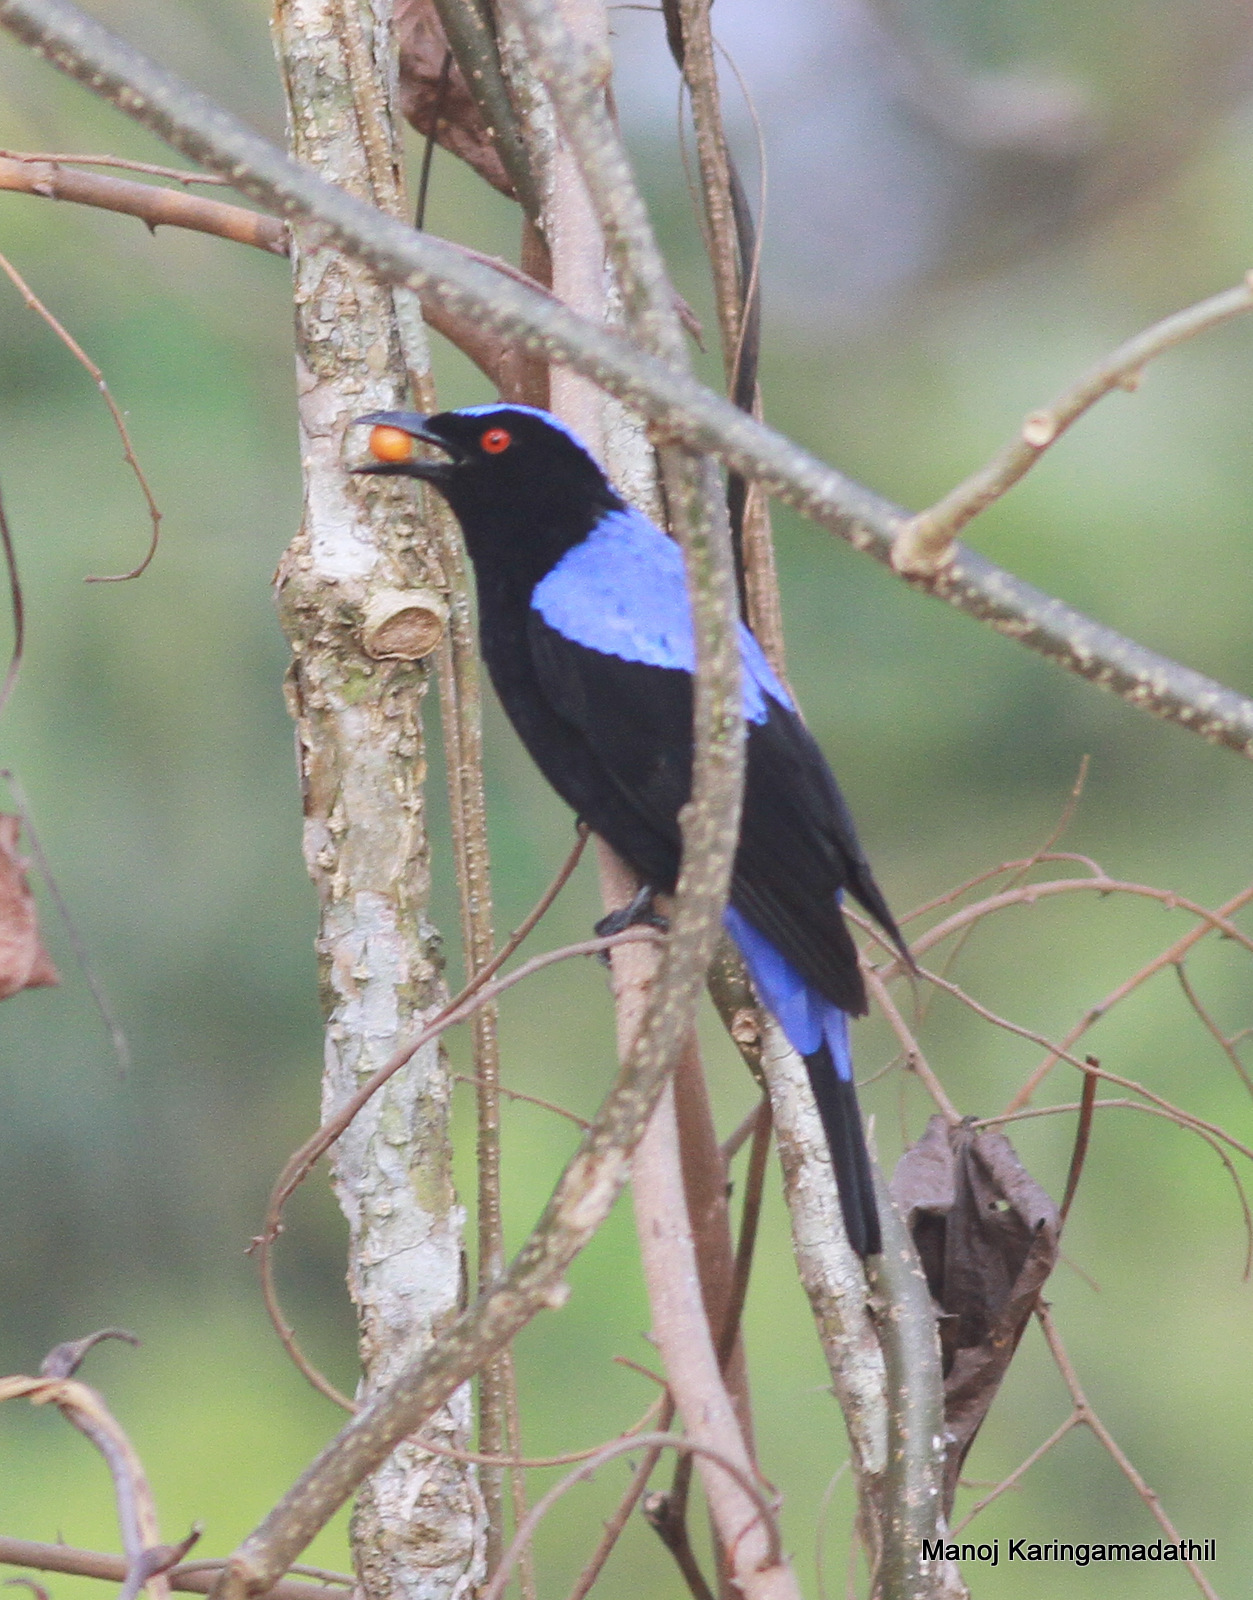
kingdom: Animalia
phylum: Chordata
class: Aves
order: Passeriformes
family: Irenidae
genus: Irena
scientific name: Irena puella
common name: Asian fairy-bluebird
